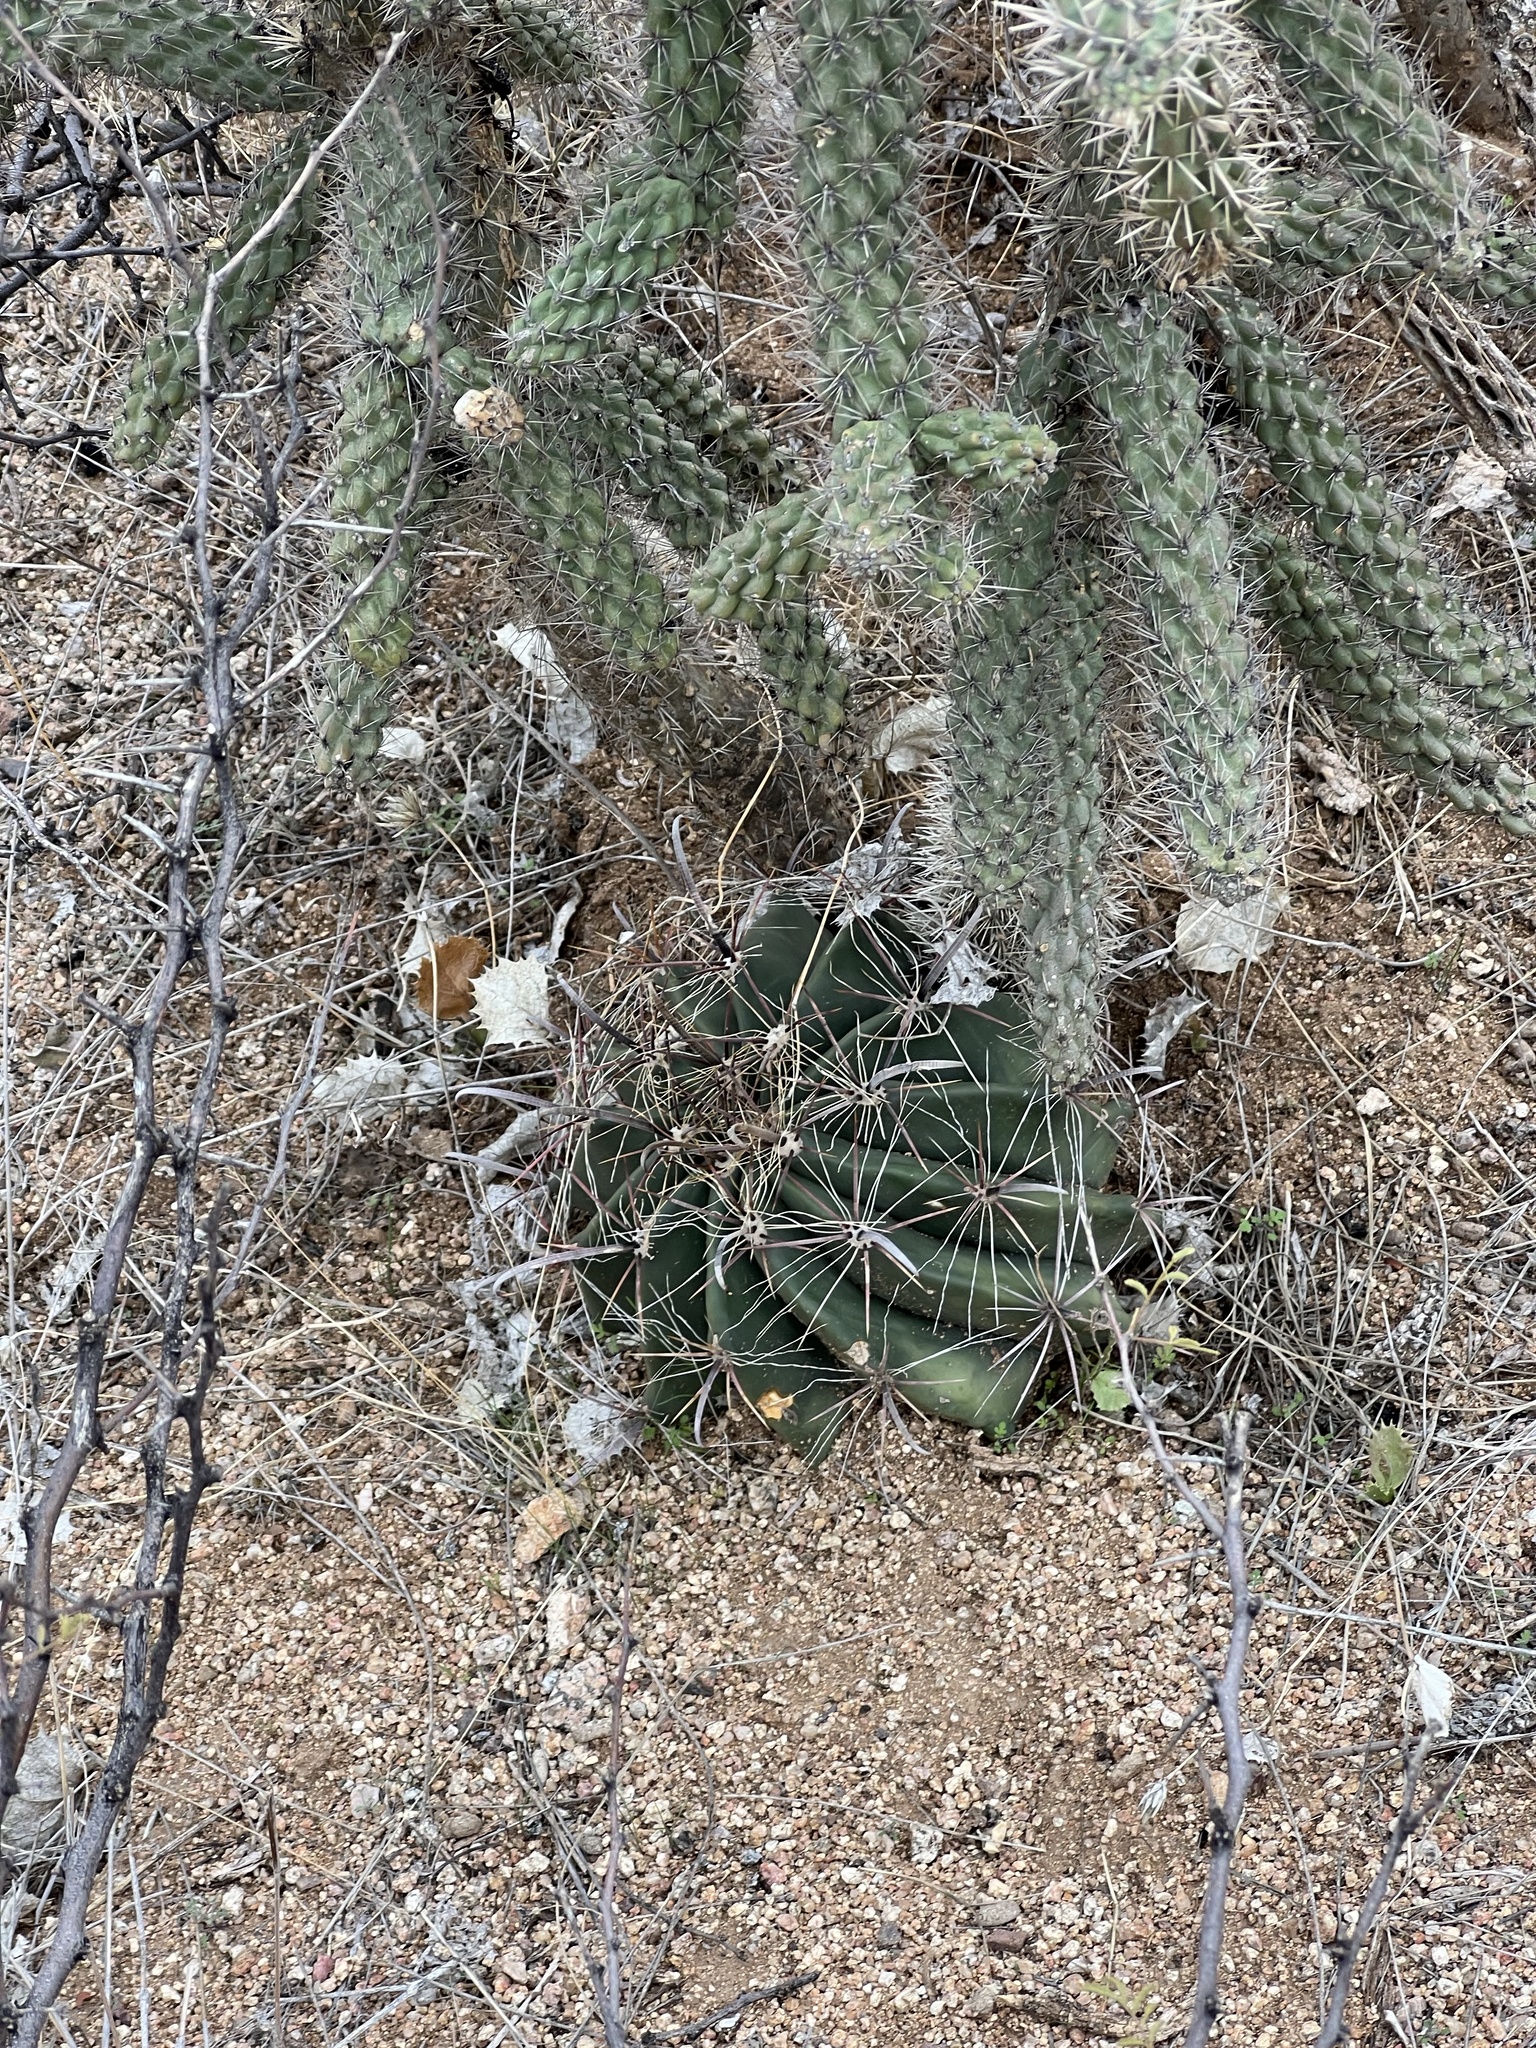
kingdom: Plantae
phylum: Tracheophyta
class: Magnoliopsida
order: Caryophyllales
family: Cactaceae
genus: Ferocactus
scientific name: Ferocactus wislizeni
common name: Candy barrel cactus
